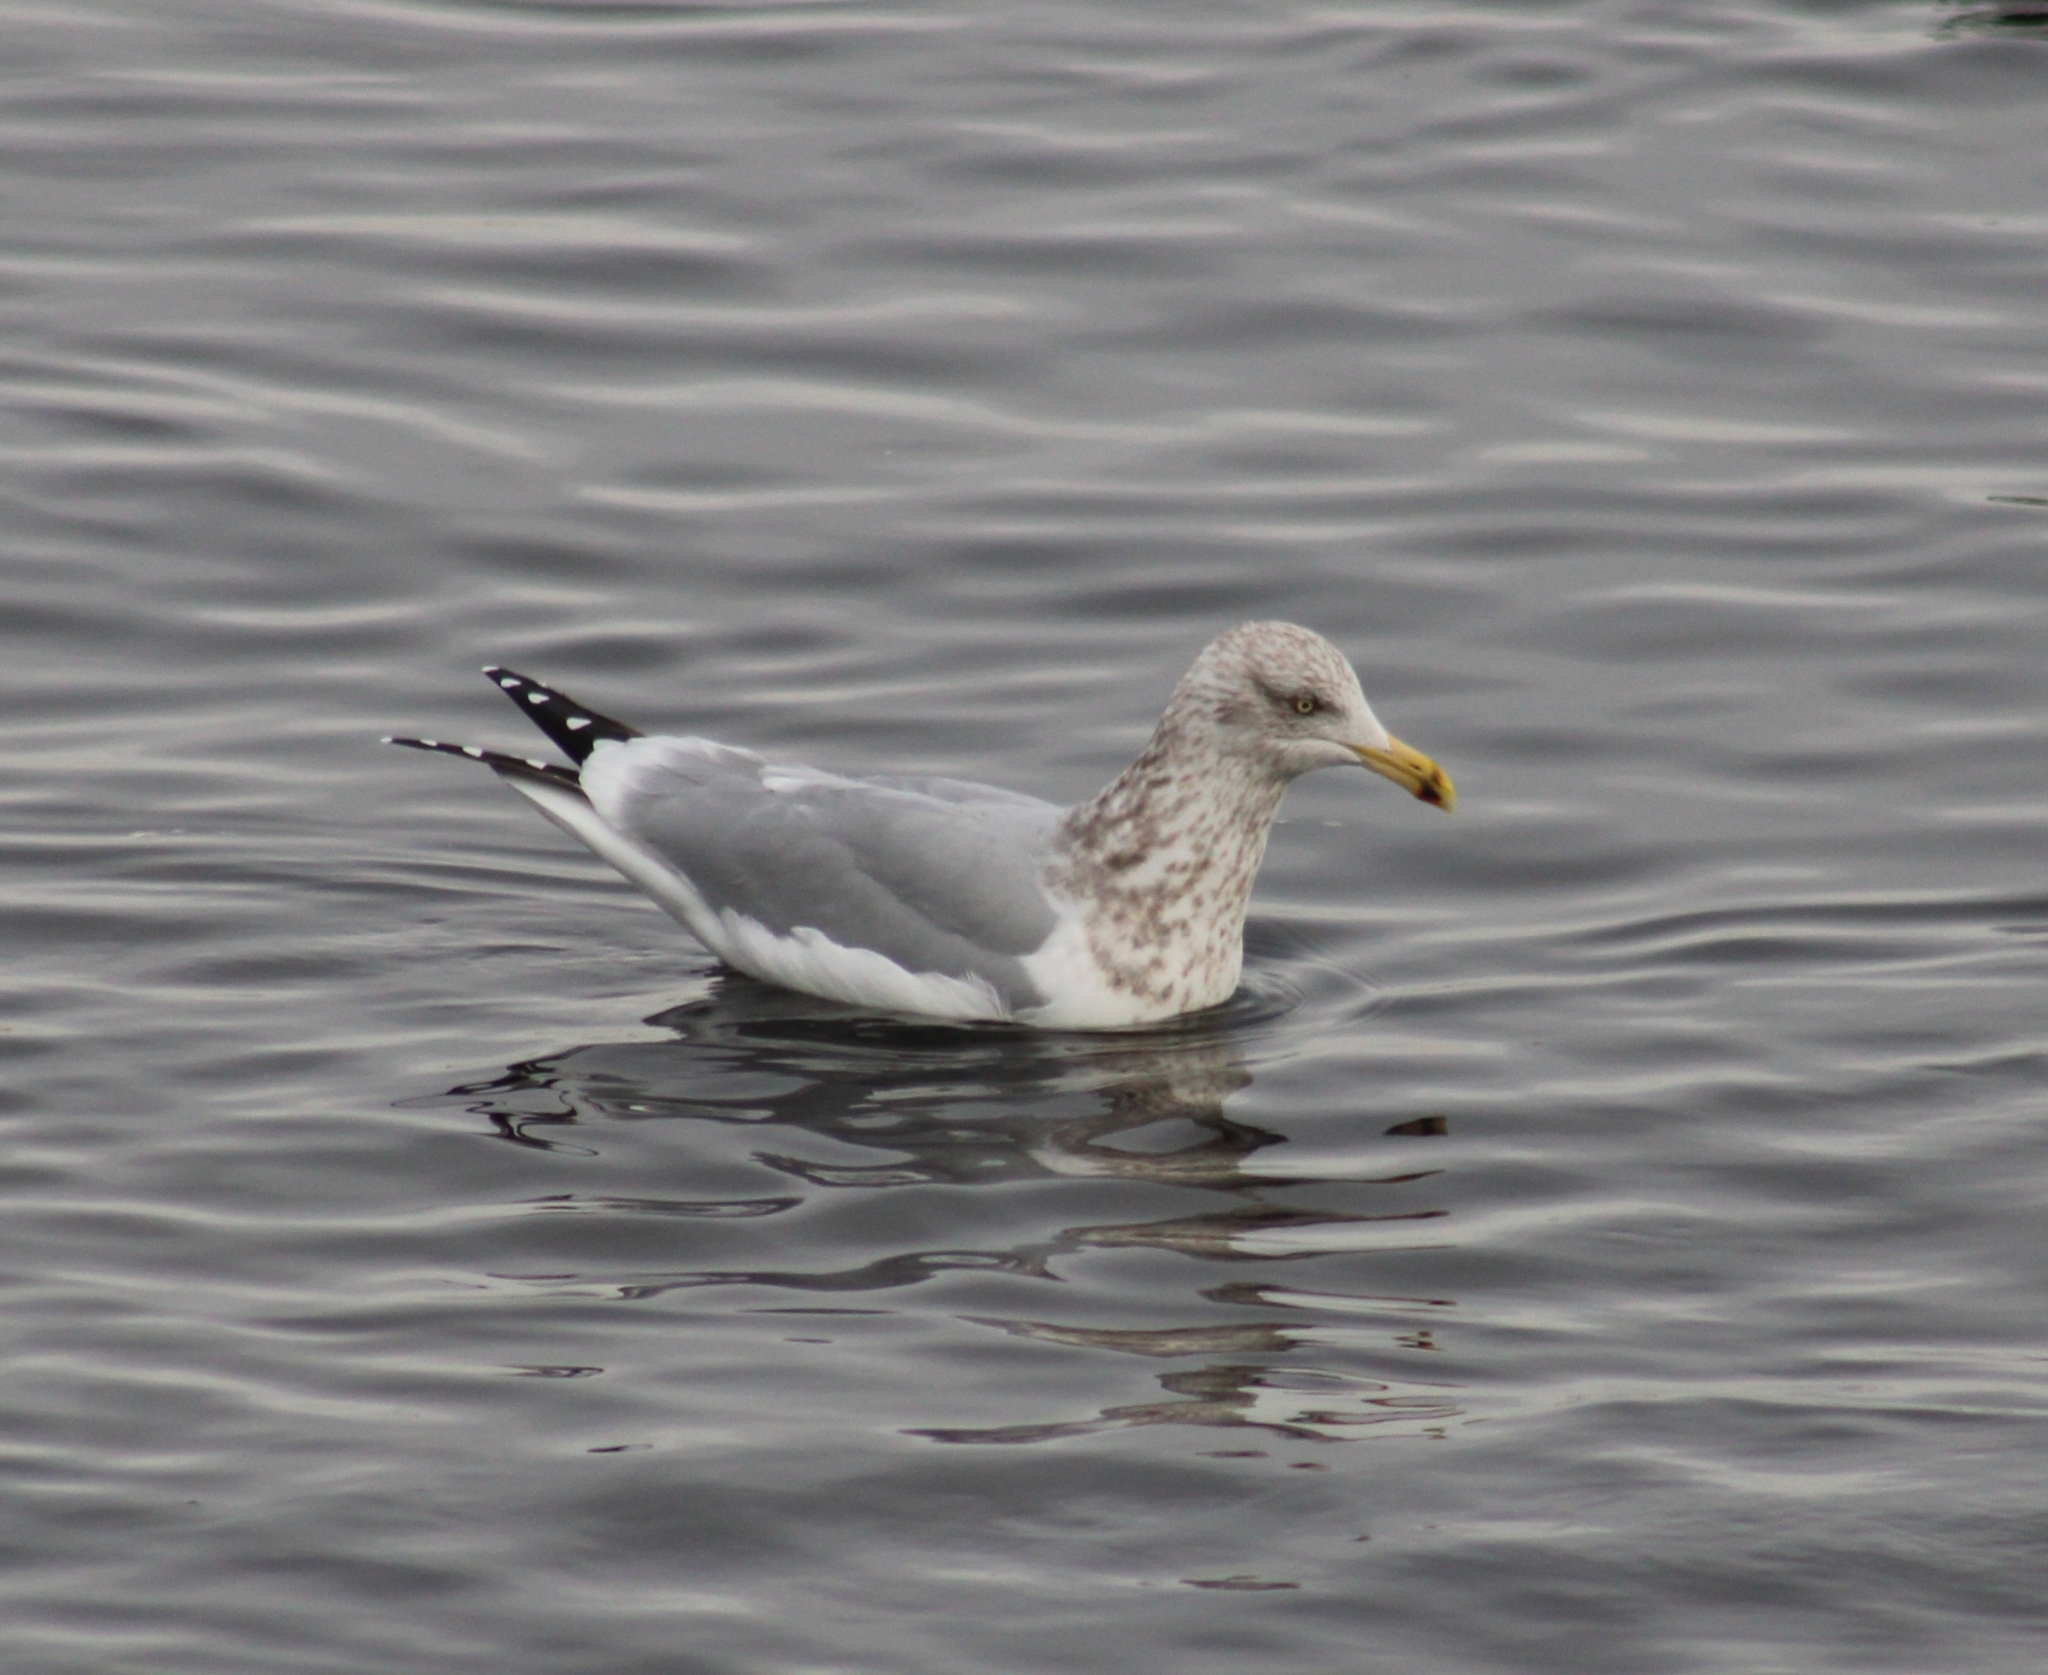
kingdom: Animalia
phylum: Chordata
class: Aves
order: Charadriiformes
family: Laridae
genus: Larus
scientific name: Larus argentatus
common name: Herring gull
